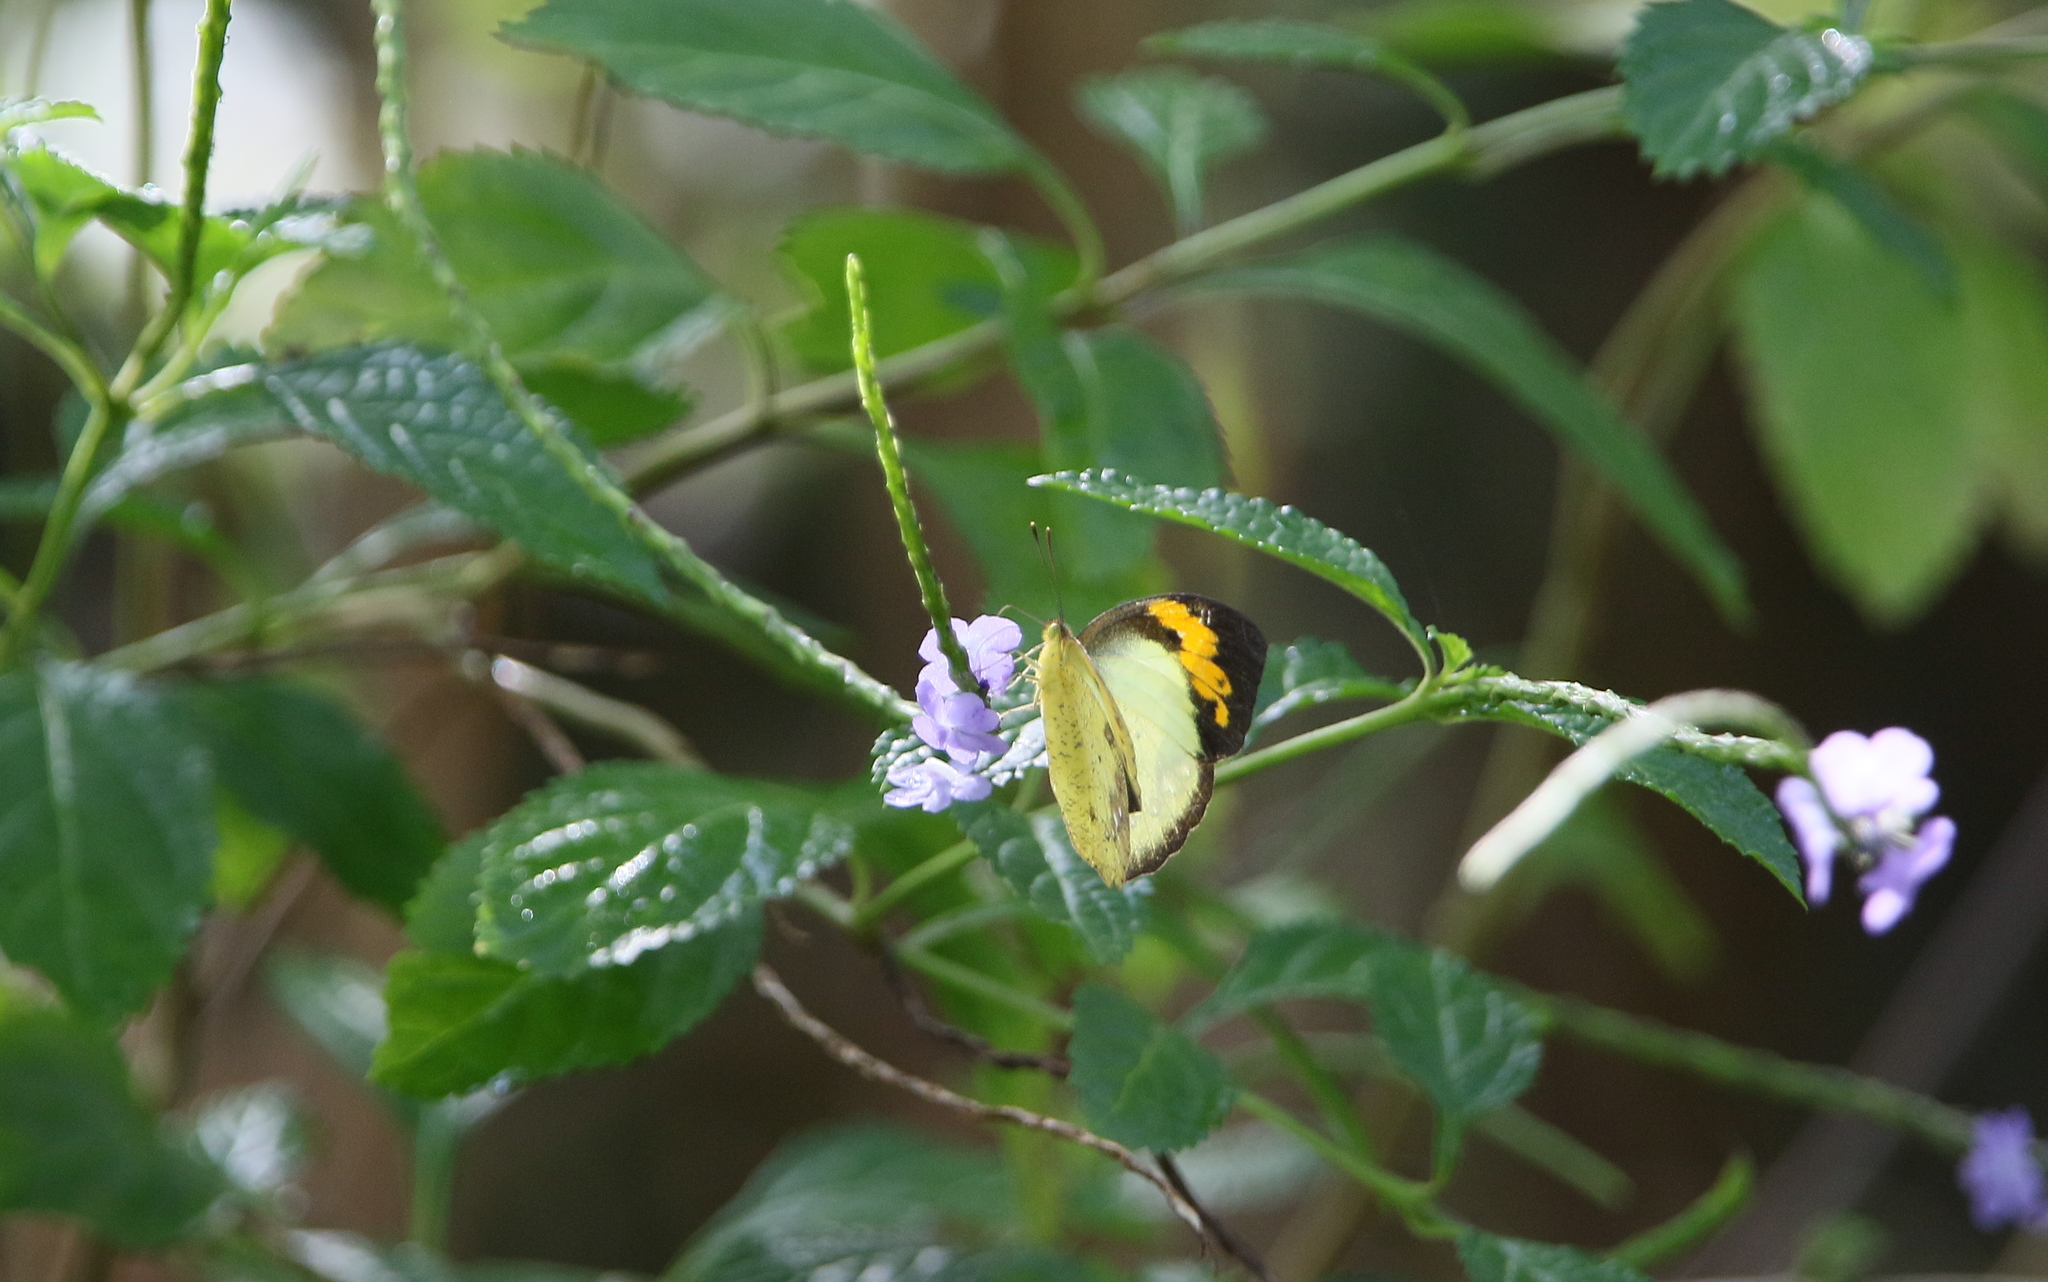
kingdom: Animalia
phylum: Arthropoda
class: Insecta
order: Lepidoptera
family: Pieridae
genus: Ixias
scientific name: Ixias pyrene
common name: Yellow orange tip
